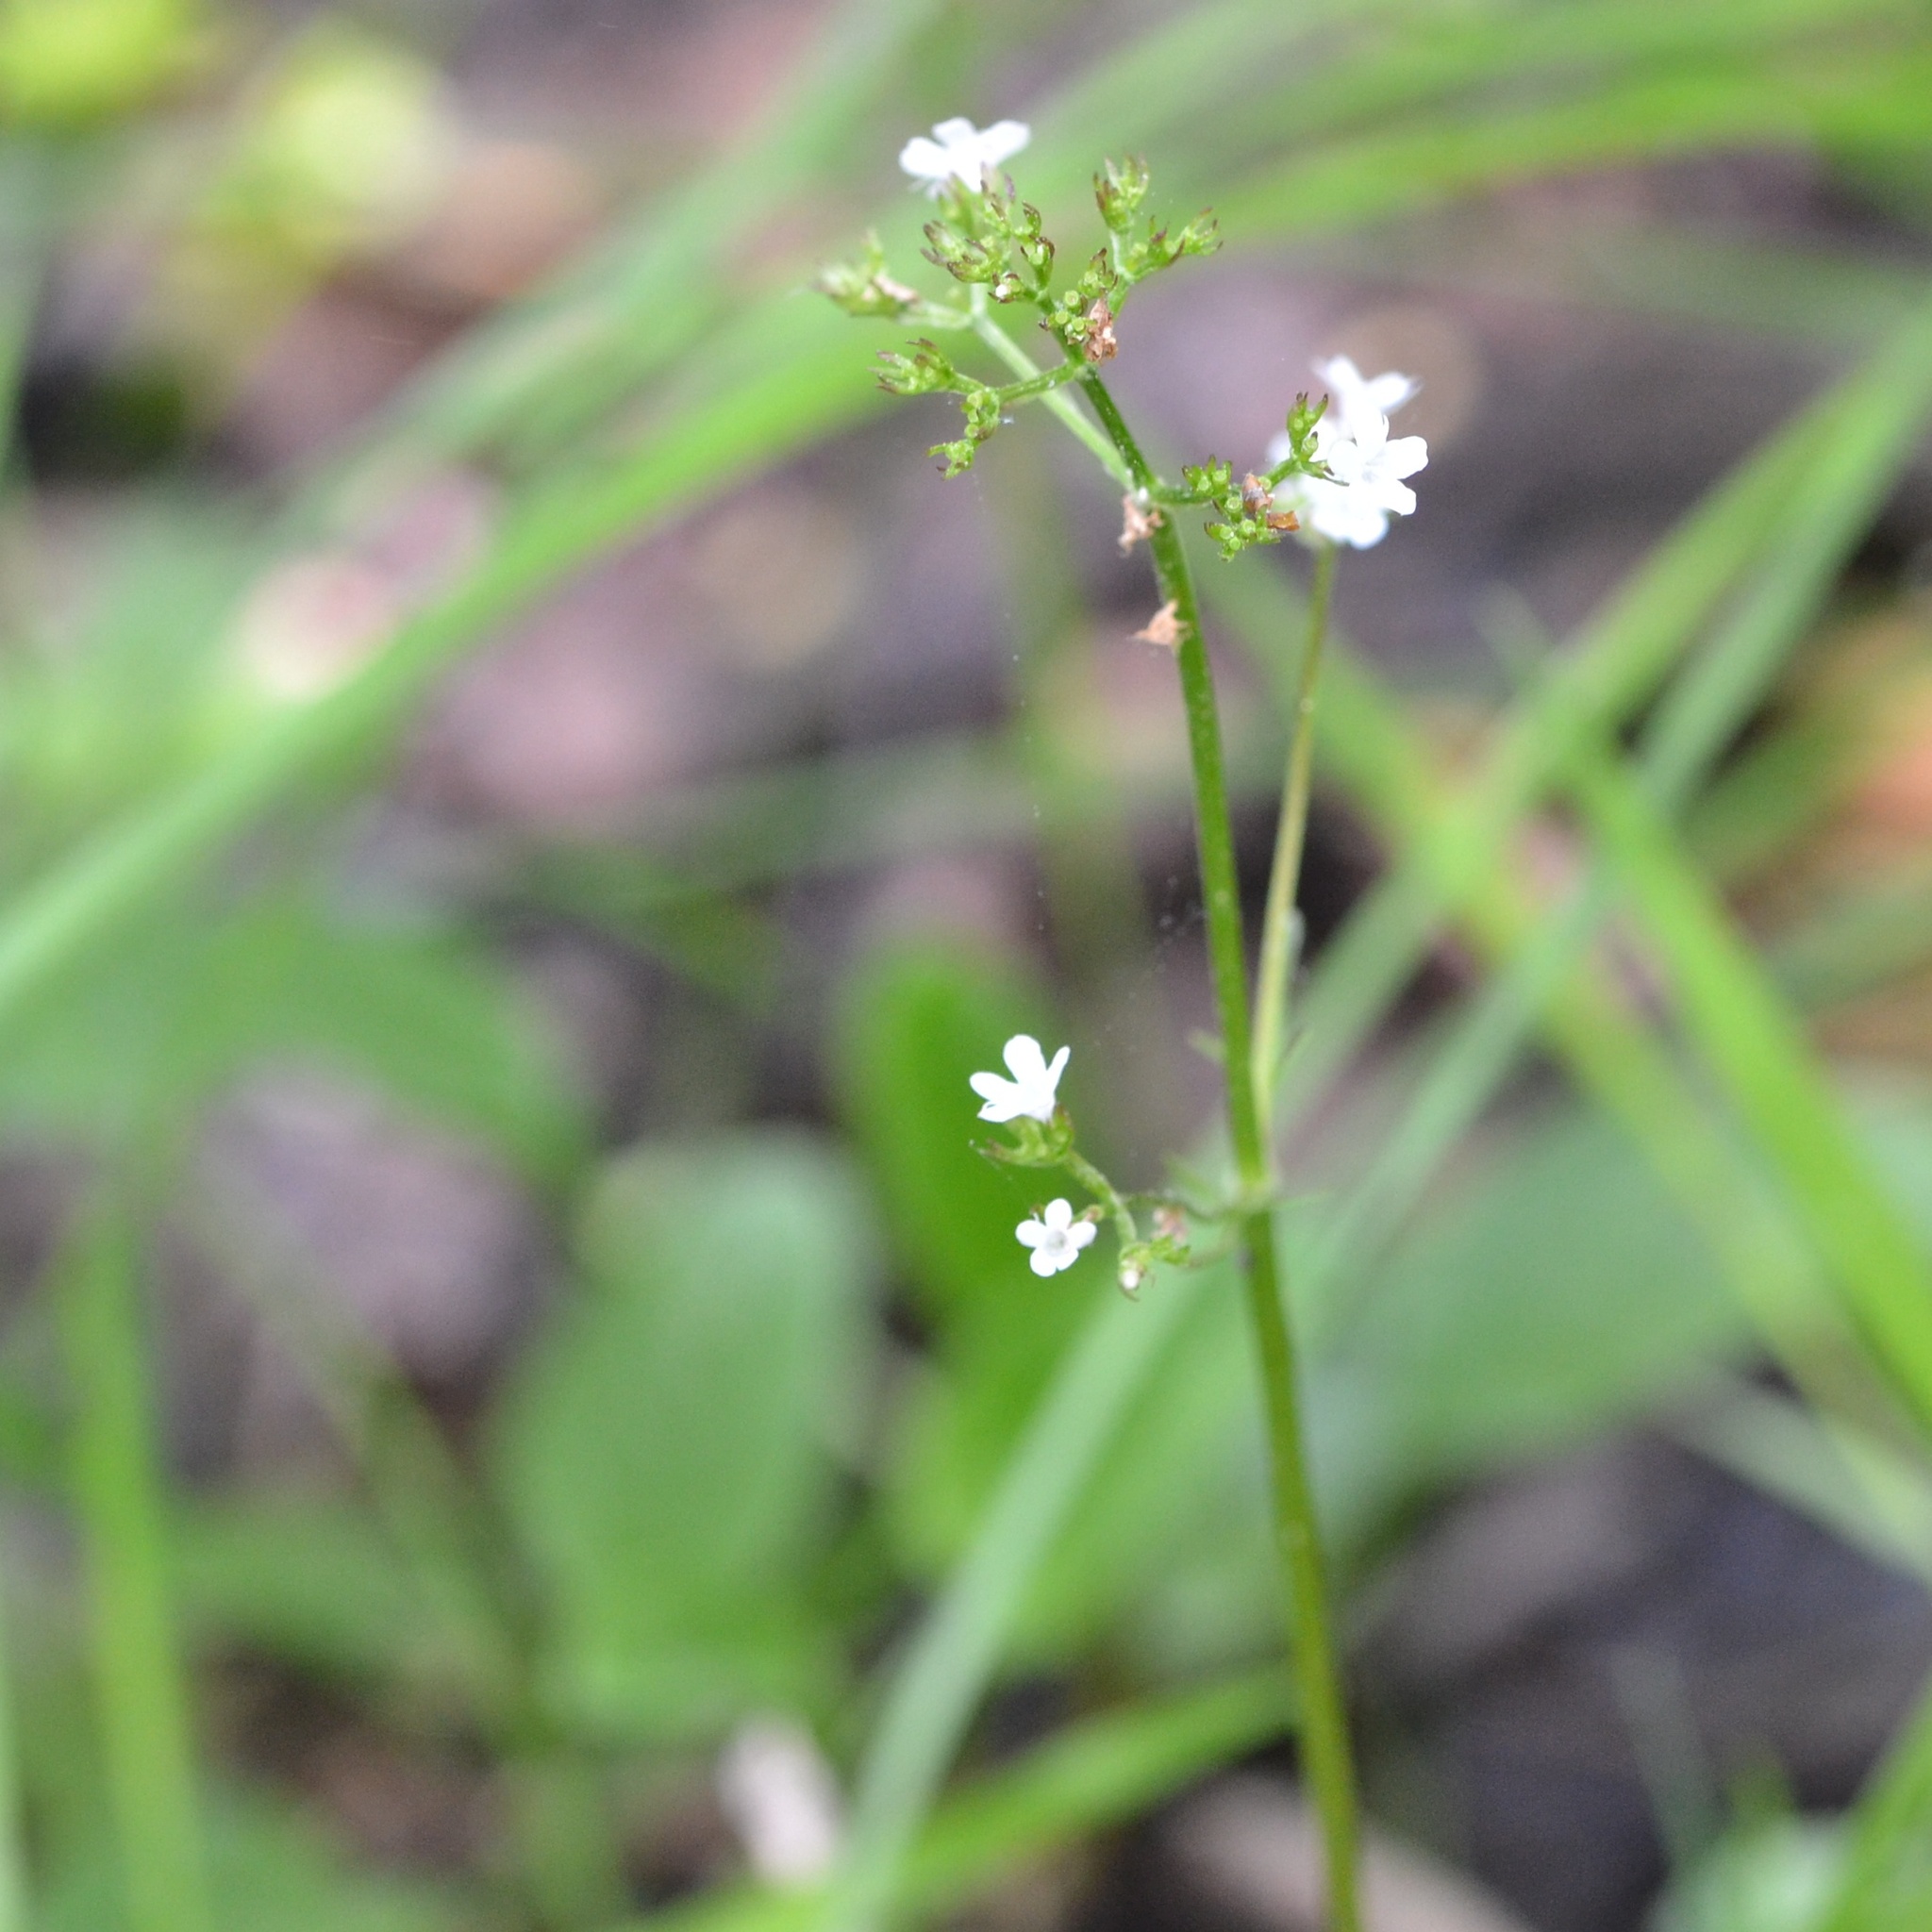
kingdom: Plantae
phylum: Tracheophyta
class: Magnoliopsida
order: Dipsacales
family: Caprifoliaceae
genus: Valeriana
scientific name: Valeriana dioica
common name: Marsh valerian
